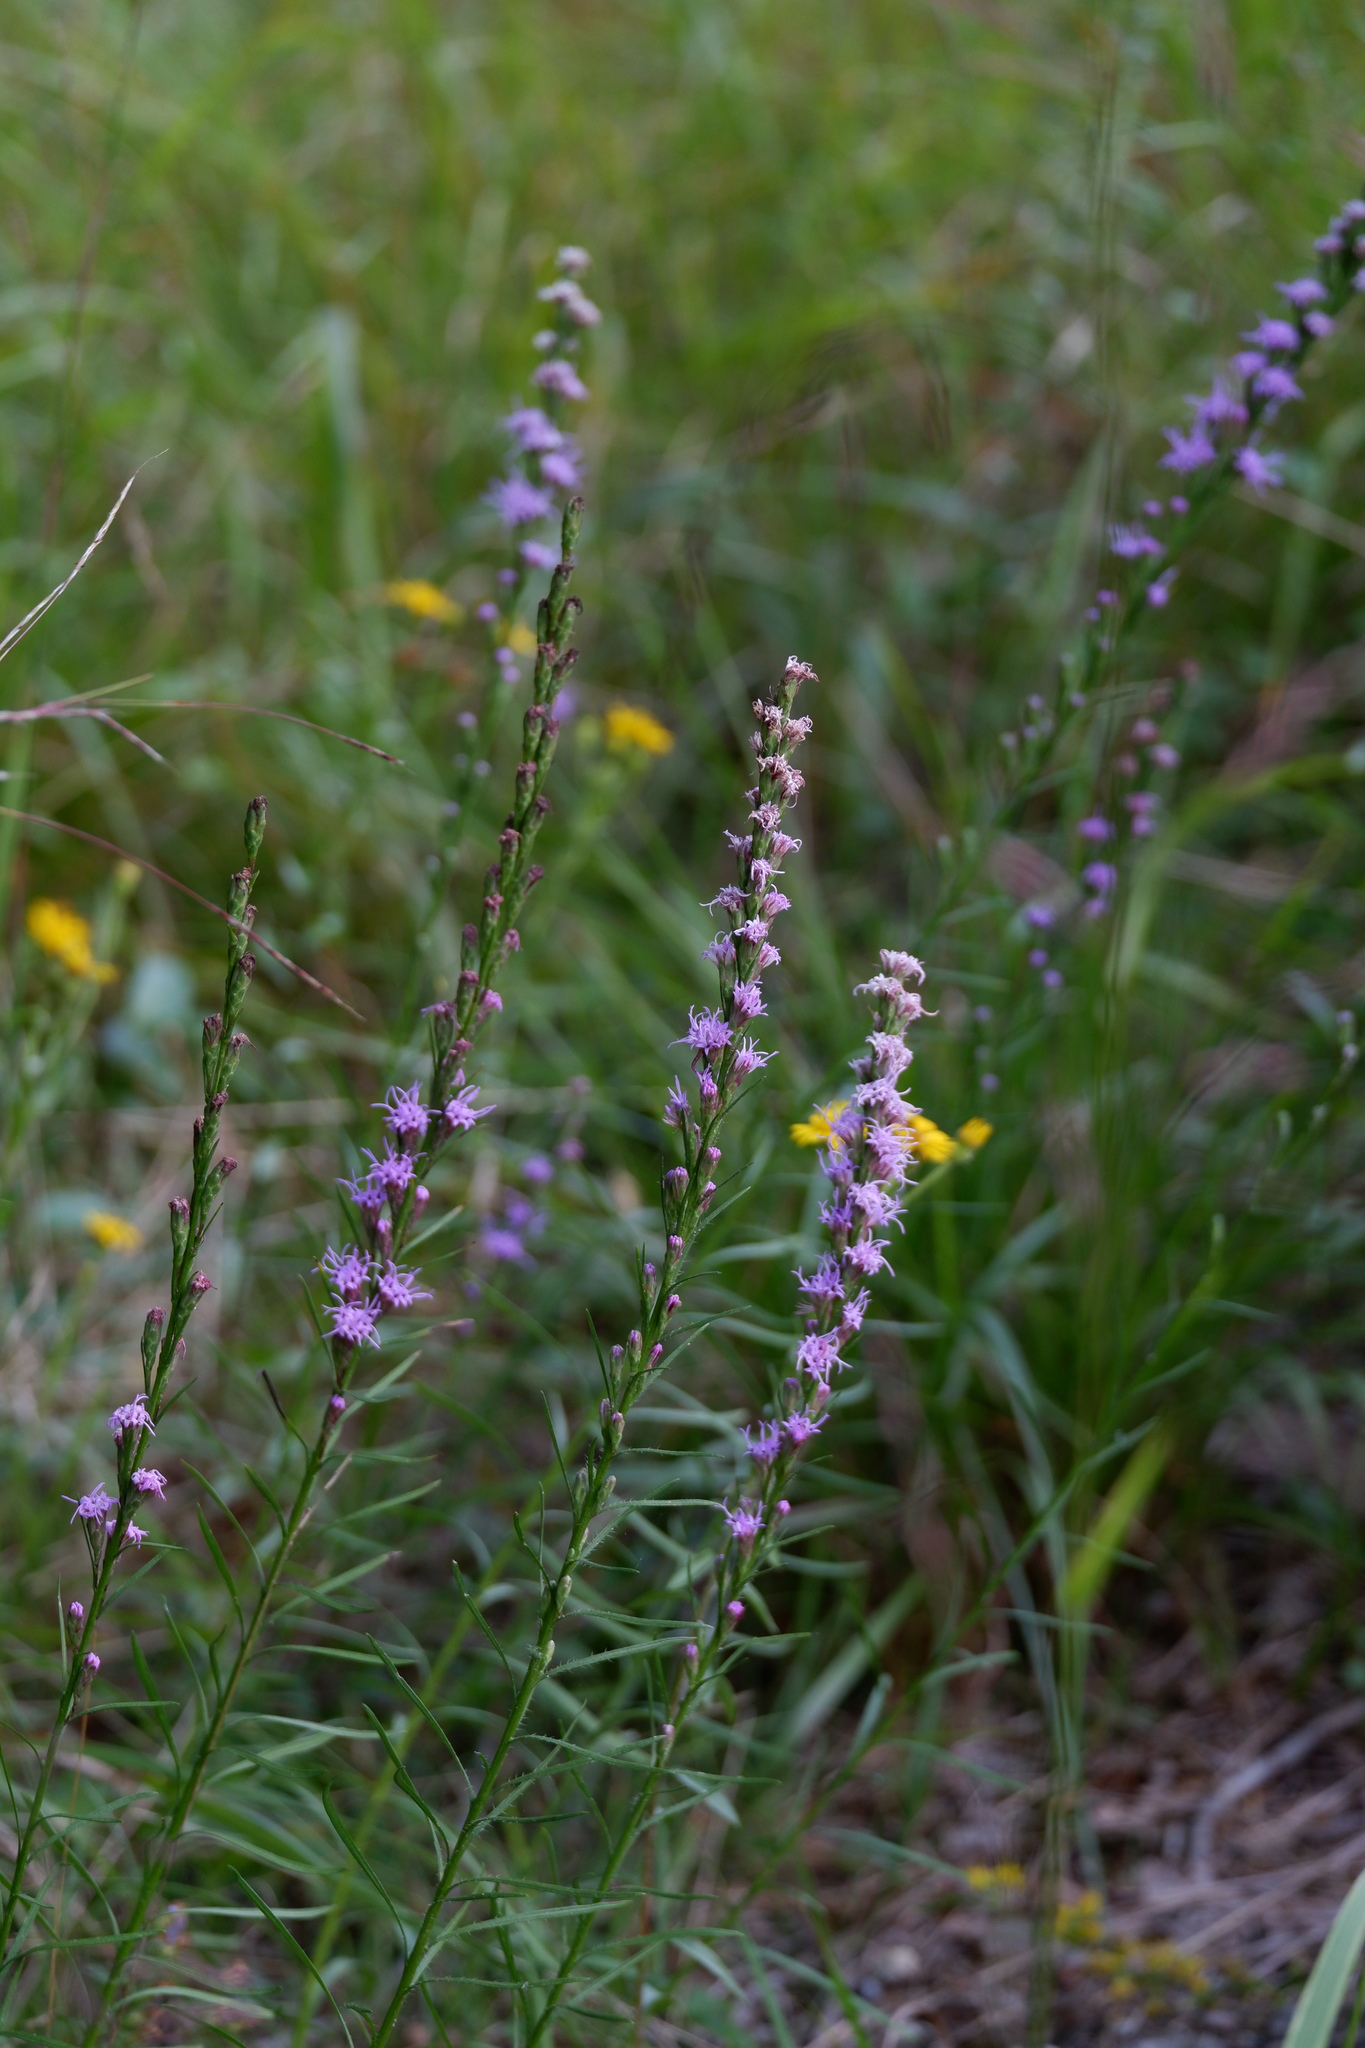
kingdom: Plantae
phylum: Tracheophyta
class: Magnoliopsida
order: Asterales
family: Asteraceae
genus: Liatris
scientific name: Liatris pilosa
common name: Grass-leaf gayfeather
